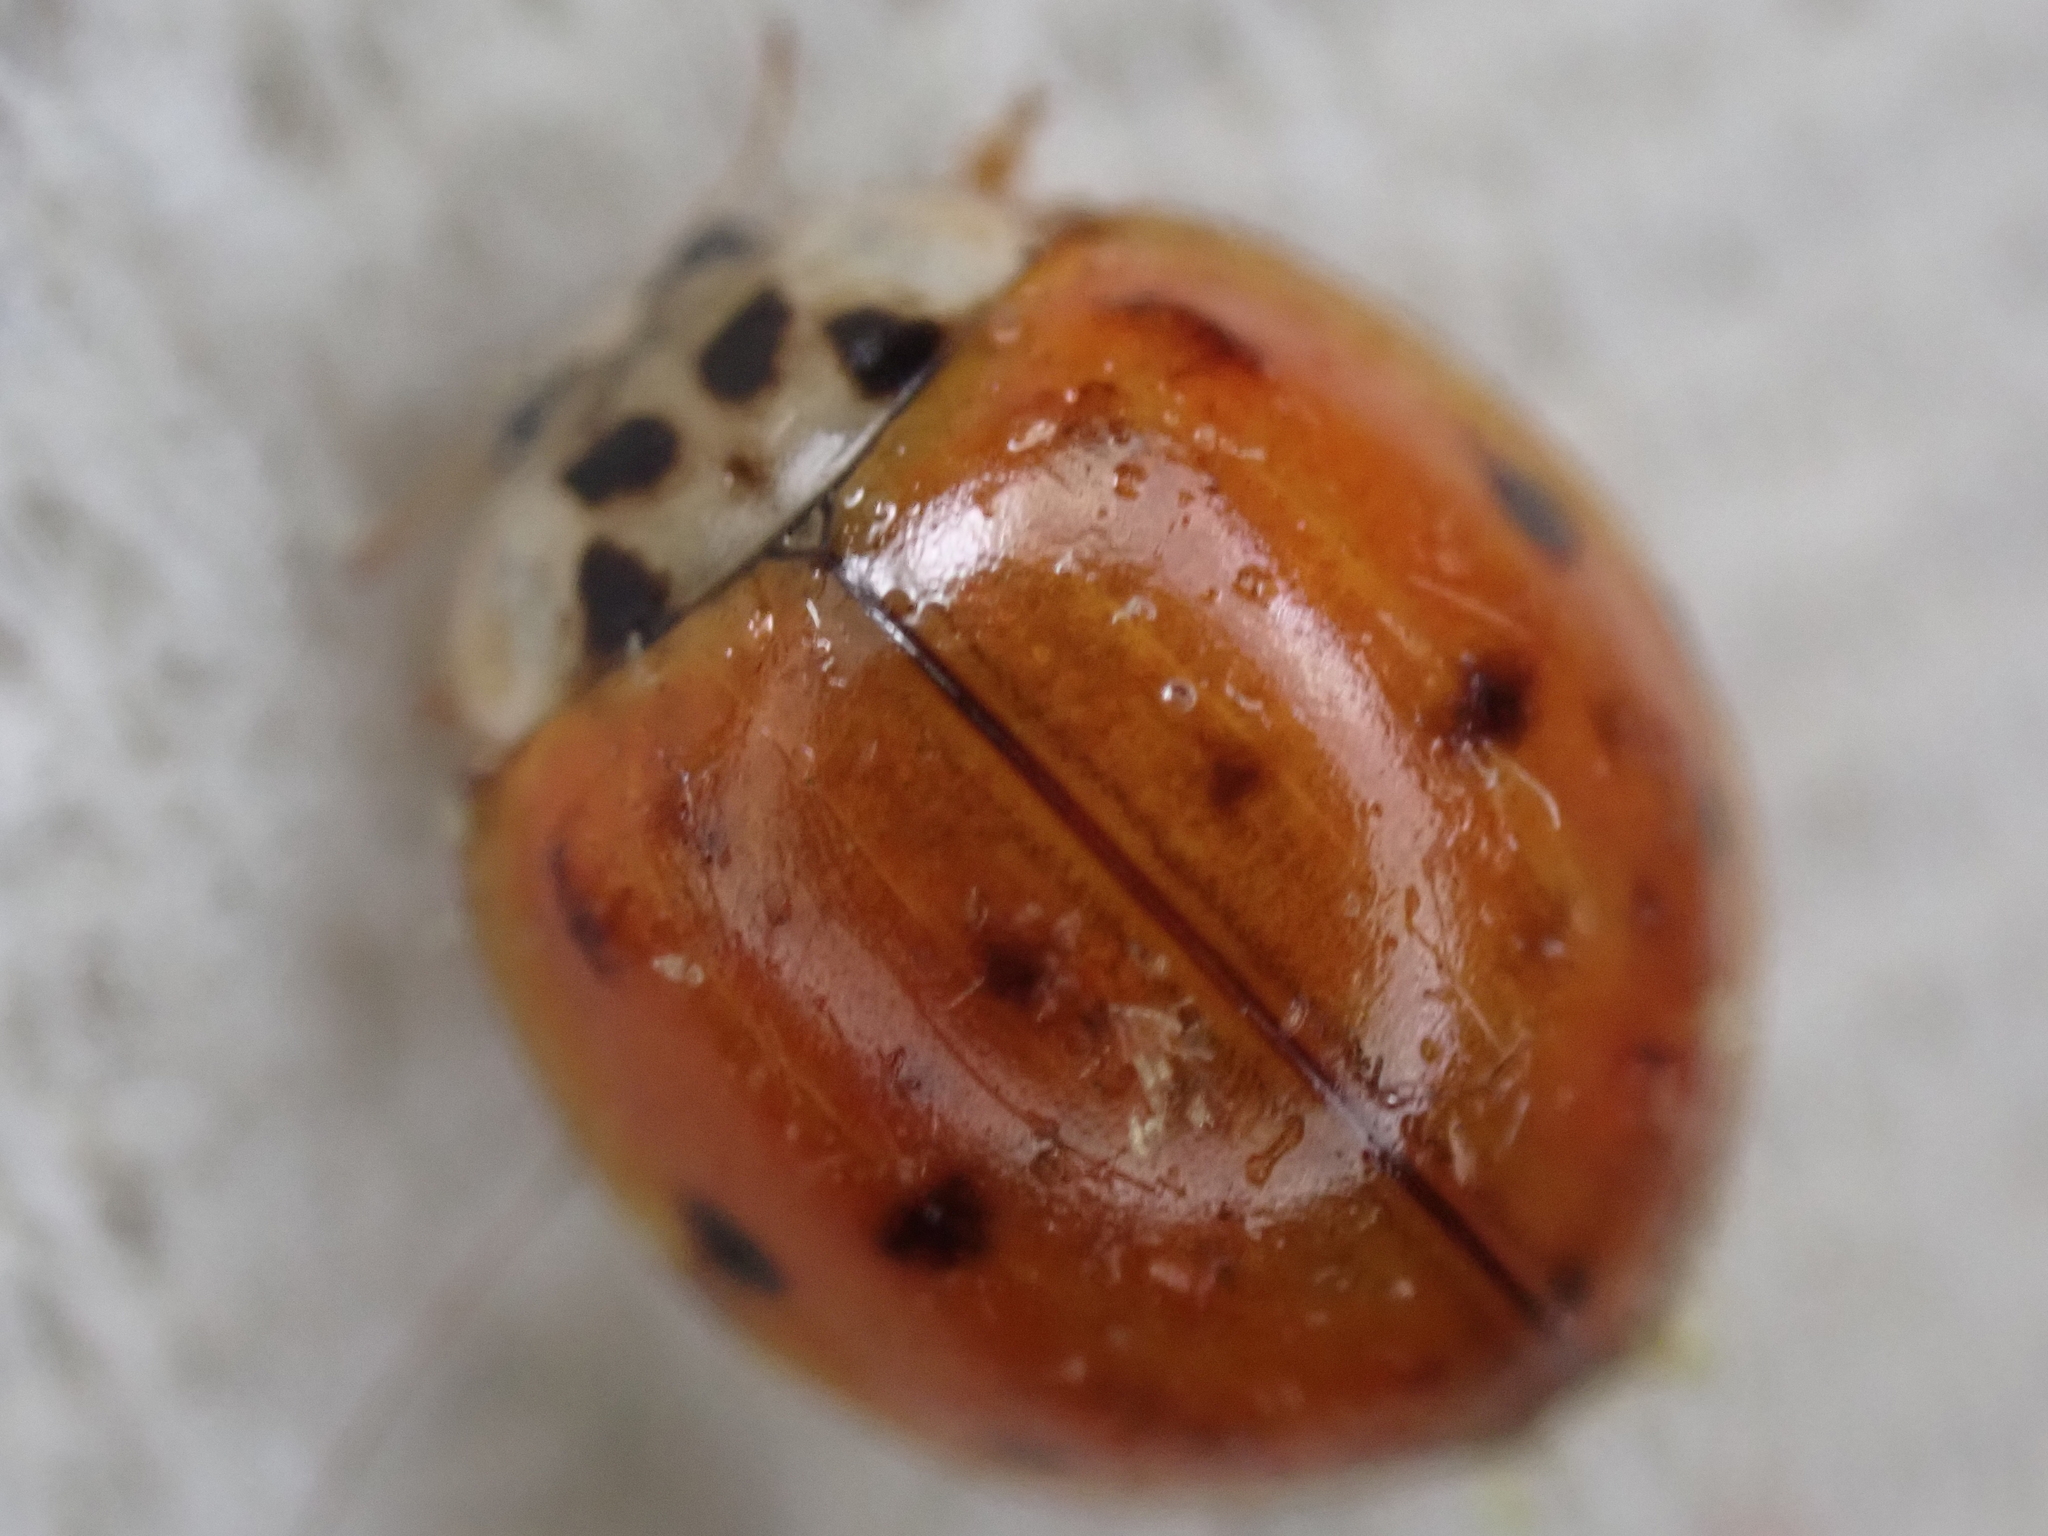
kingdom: Animalia
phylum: Arthropoda
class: Insecta
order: Coleoptera
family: Coccinellidae
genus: Harmonia
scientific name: Harmonia axyridis
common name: Harlequin ladybird
